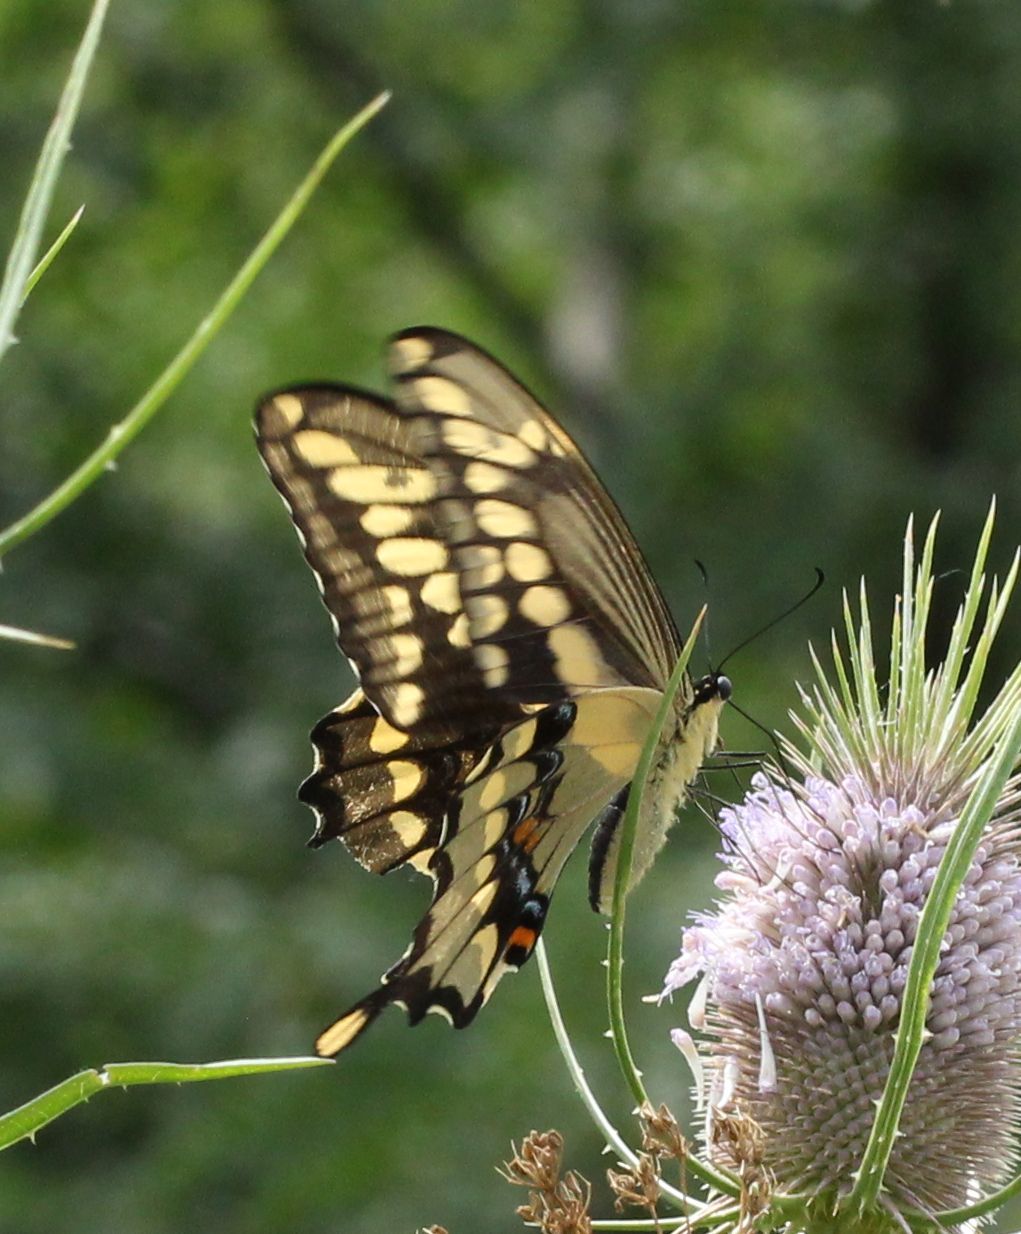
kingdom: Animalia
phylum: Arthropoda
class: Insecta
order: Lepidoptera
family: Papilionidae
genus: Papilio
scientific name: Papilio cresphontes
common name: Giant swallowtail
